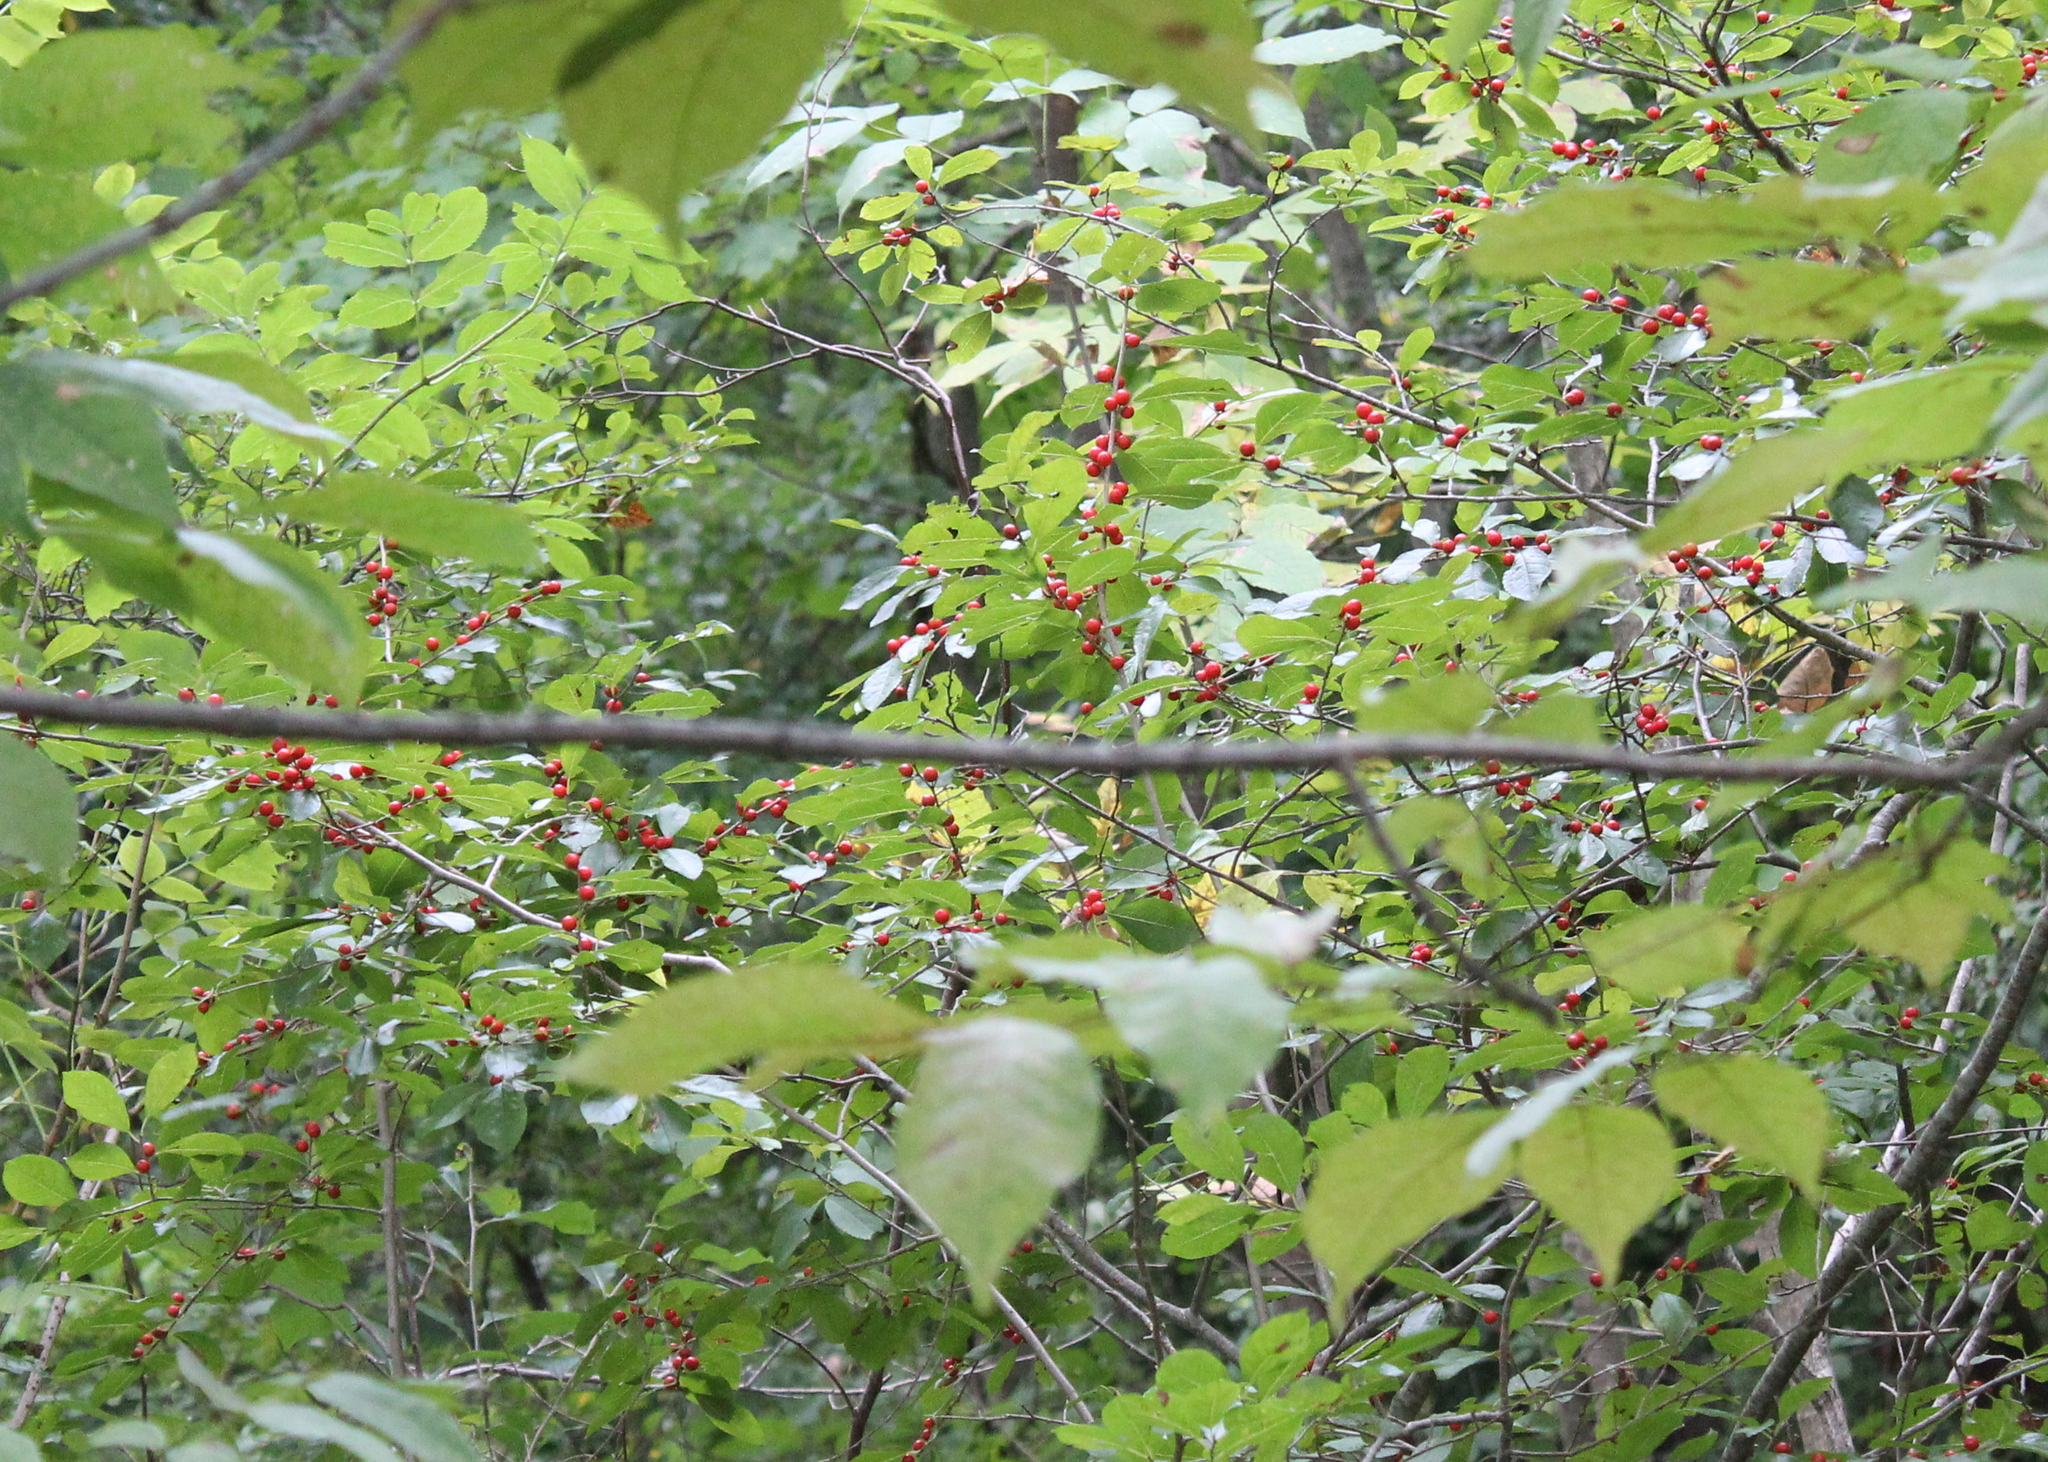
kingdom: Plantae
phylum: Tracheophyta
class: Magnoliopsida
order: Aquifoliales
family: Aquifoliaceae
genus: Ilex
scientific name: Ilex verticillata
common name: Virginia winterberry
